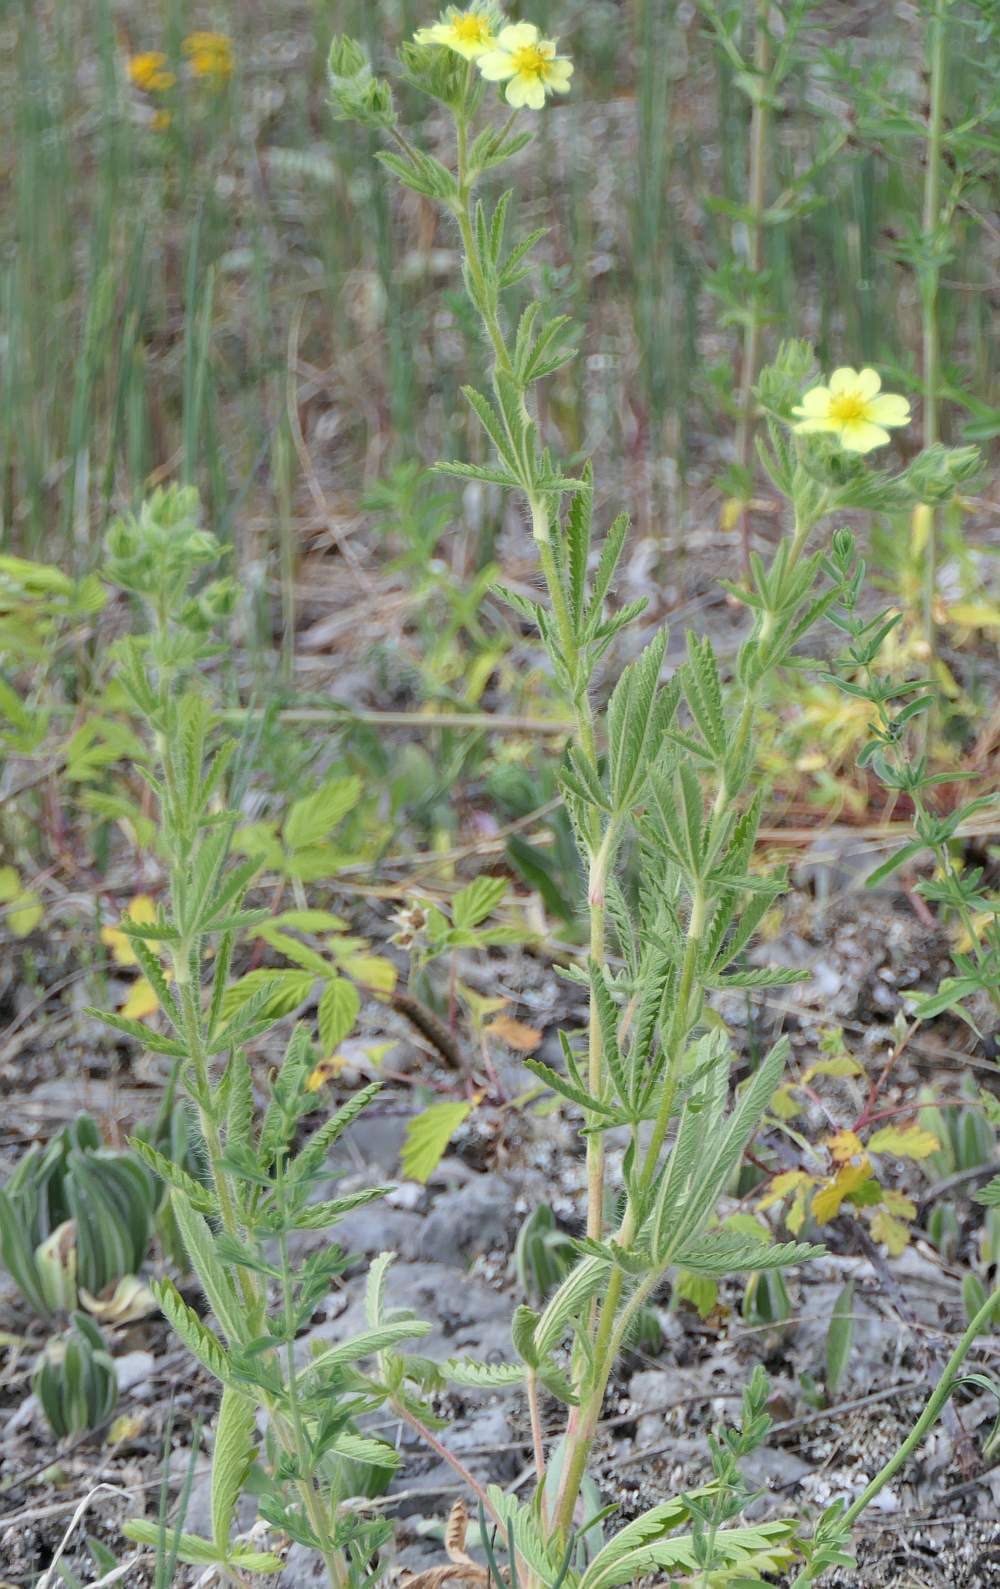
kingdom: Plantae
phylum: Tracheophyta
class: Magnoliopsida
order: Rosales
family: Rosaceae
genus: Potentilla
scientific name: Potentilla recta
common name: Sulphur cinquefoil
